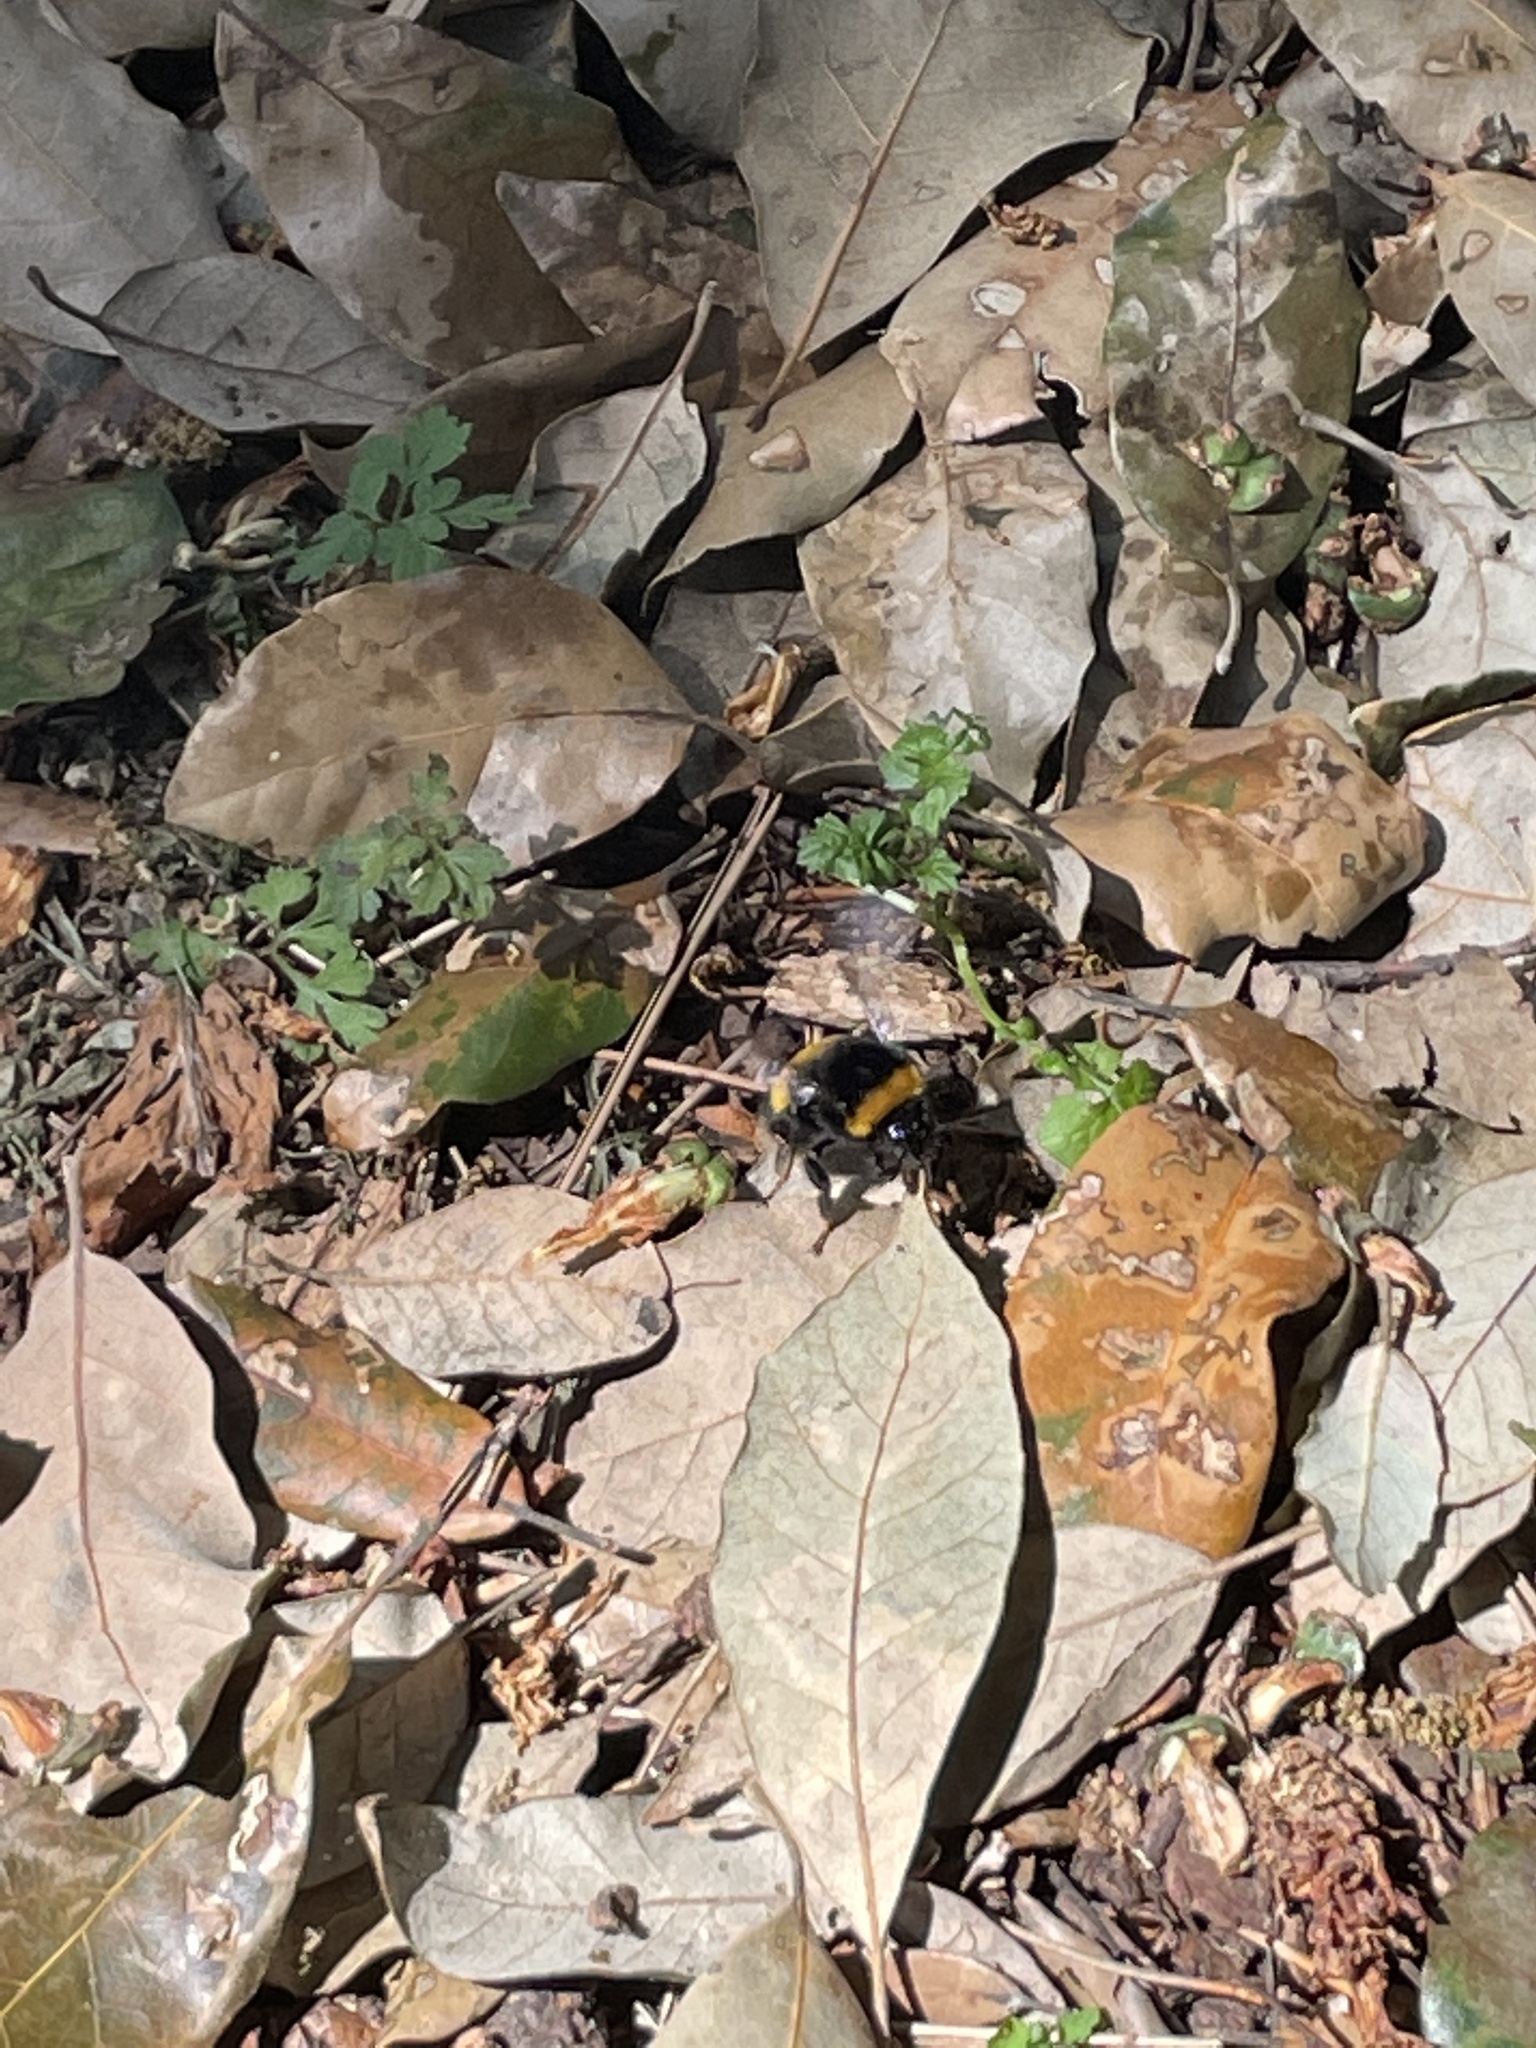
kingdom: Animalia
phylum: Arthropoda
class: Insecta
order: Hymenoptera
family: Apidae
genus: Bombus
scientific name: Bombus terrestris
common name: Buff-tailed bumblebee
